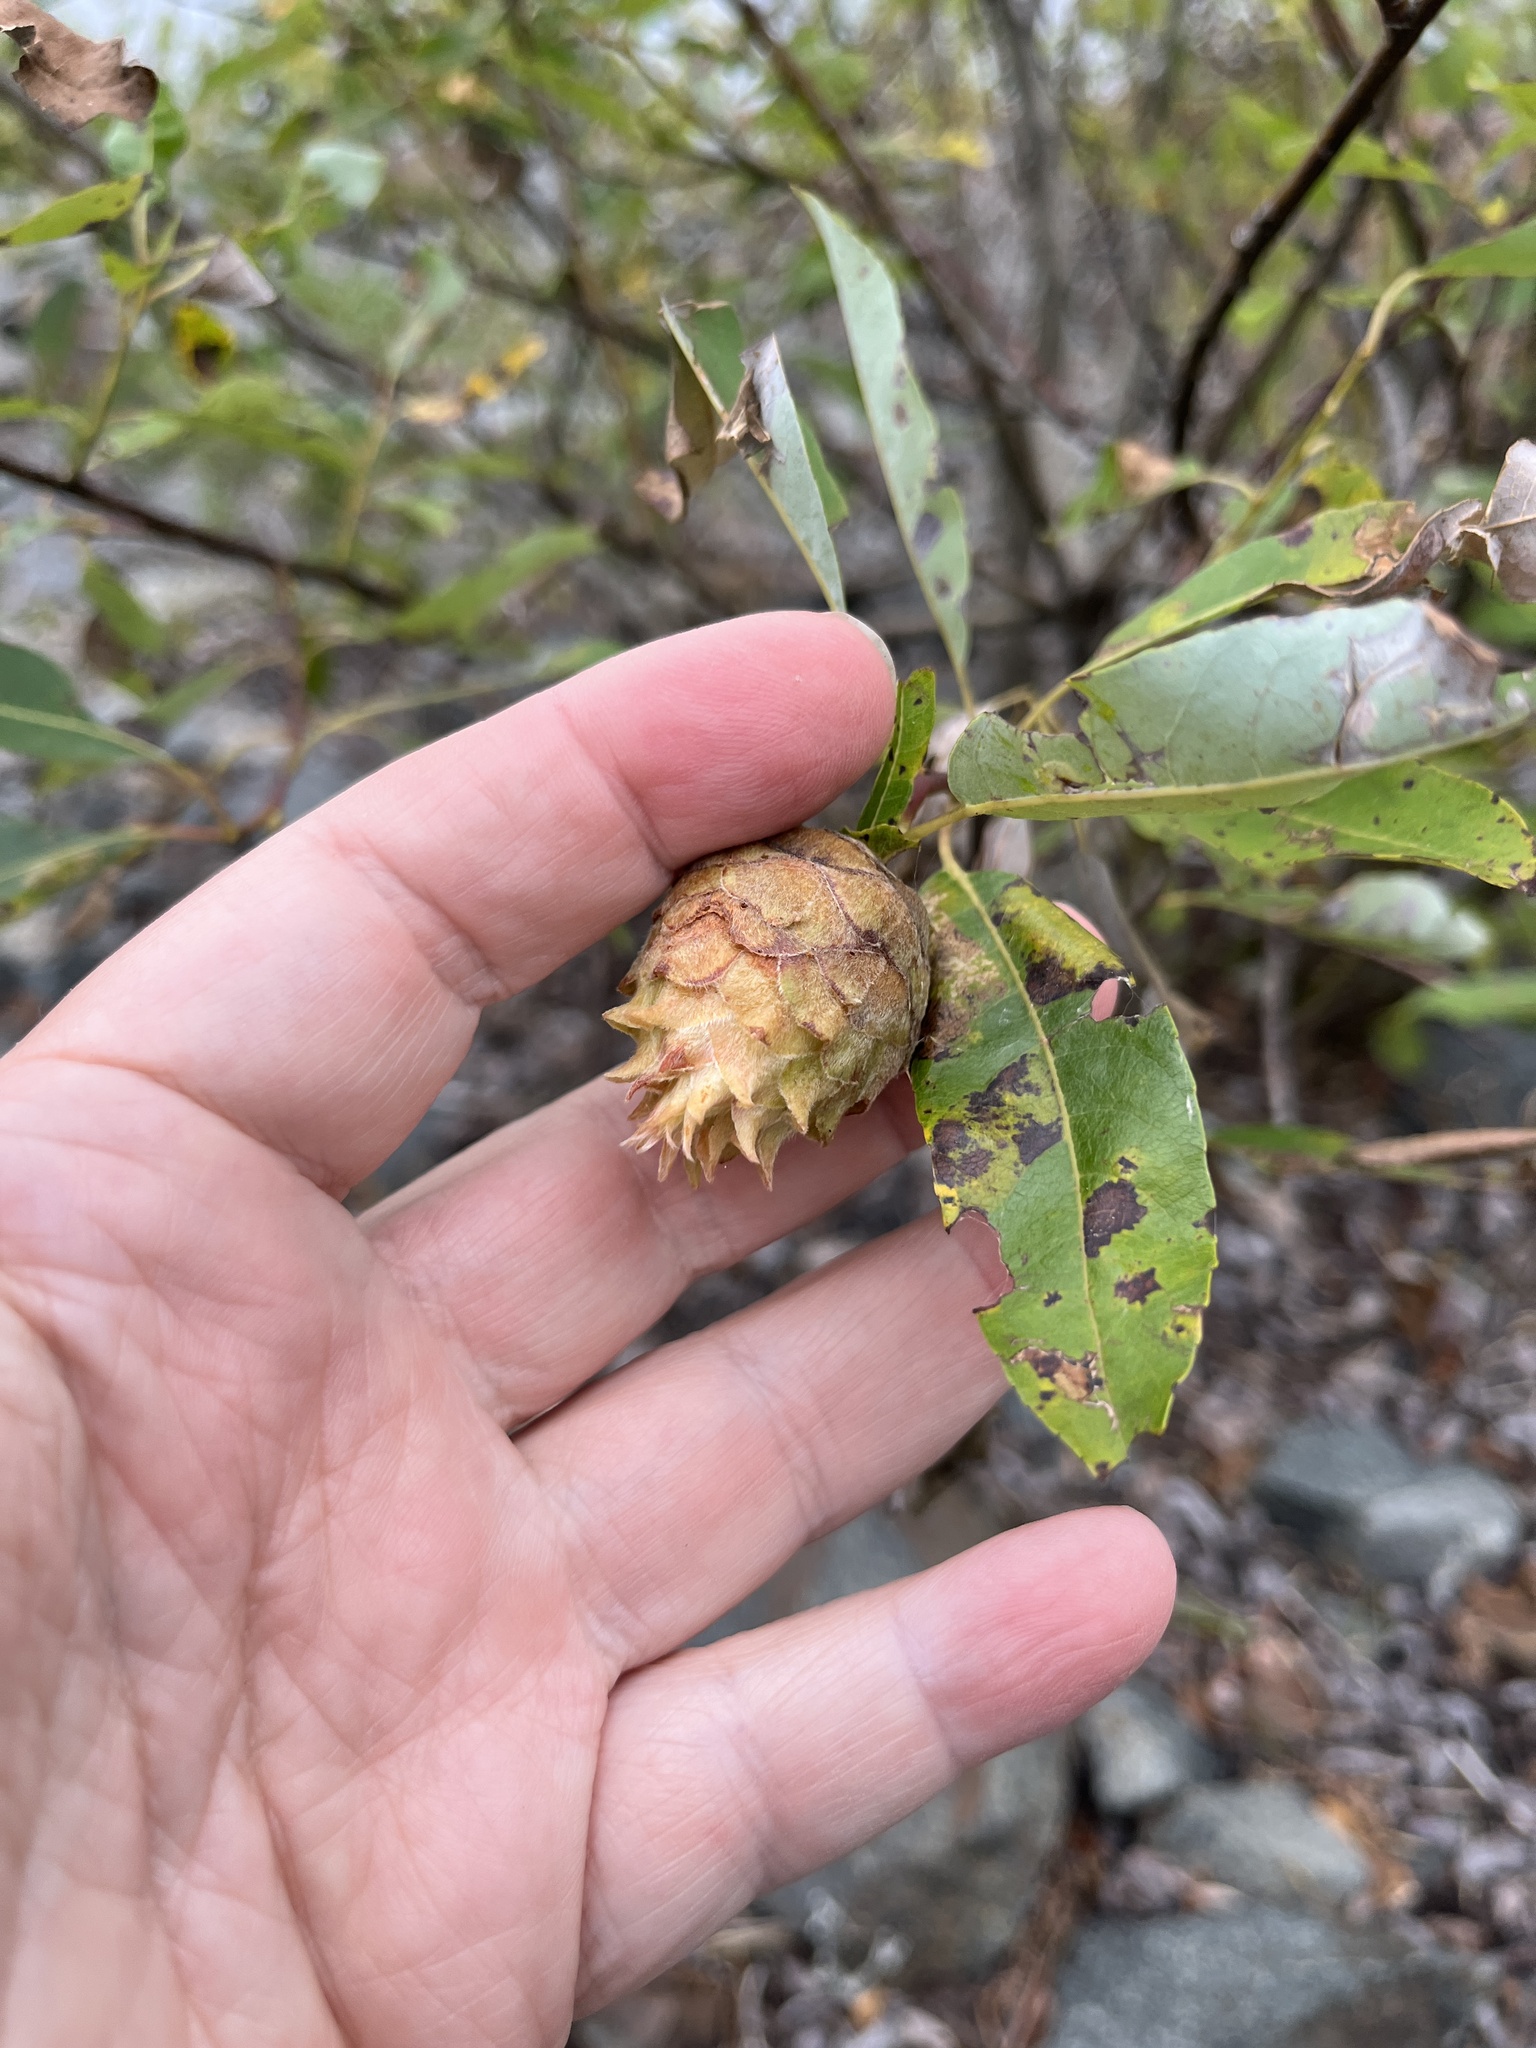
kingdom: Animalia
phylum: Arthropoda
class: Insecta
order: Diptera
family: Cecidomyiidae
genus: Rabdophaga
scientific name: Rabdophaga strobiloides
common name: Willow pinecone gall midge
